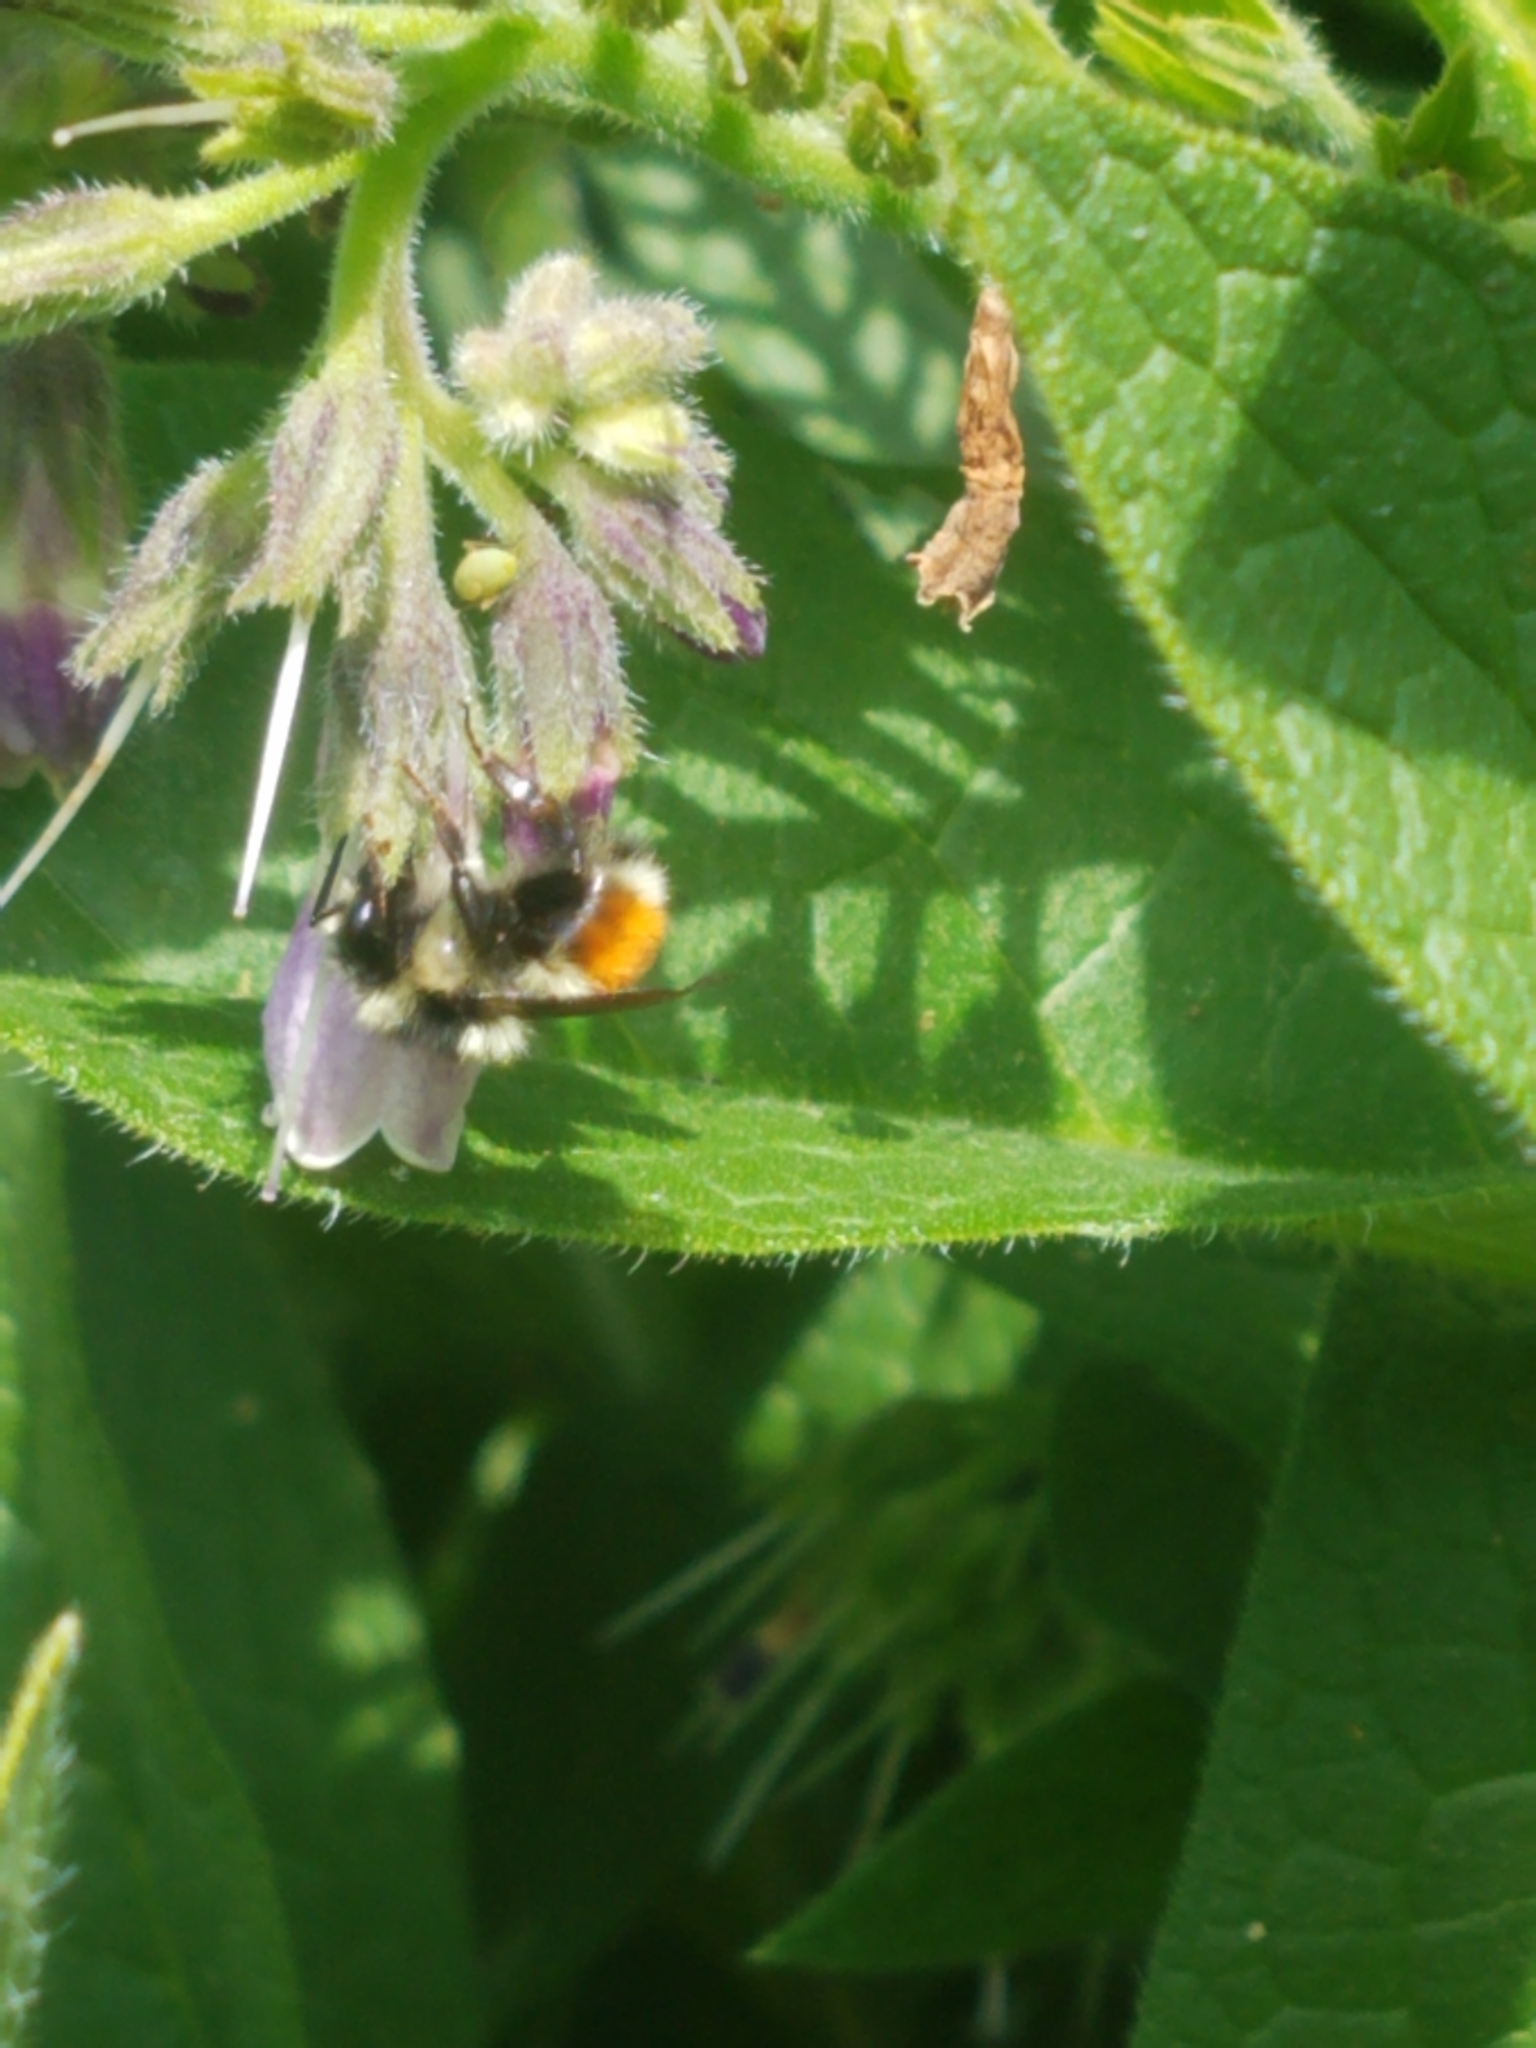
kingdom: Animalia
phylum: Arthropoda
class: Insecta
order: Hymenoptera
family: Apidae
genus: Bombus
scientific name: Bombus melanopygus
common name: Black tail bumble bee
